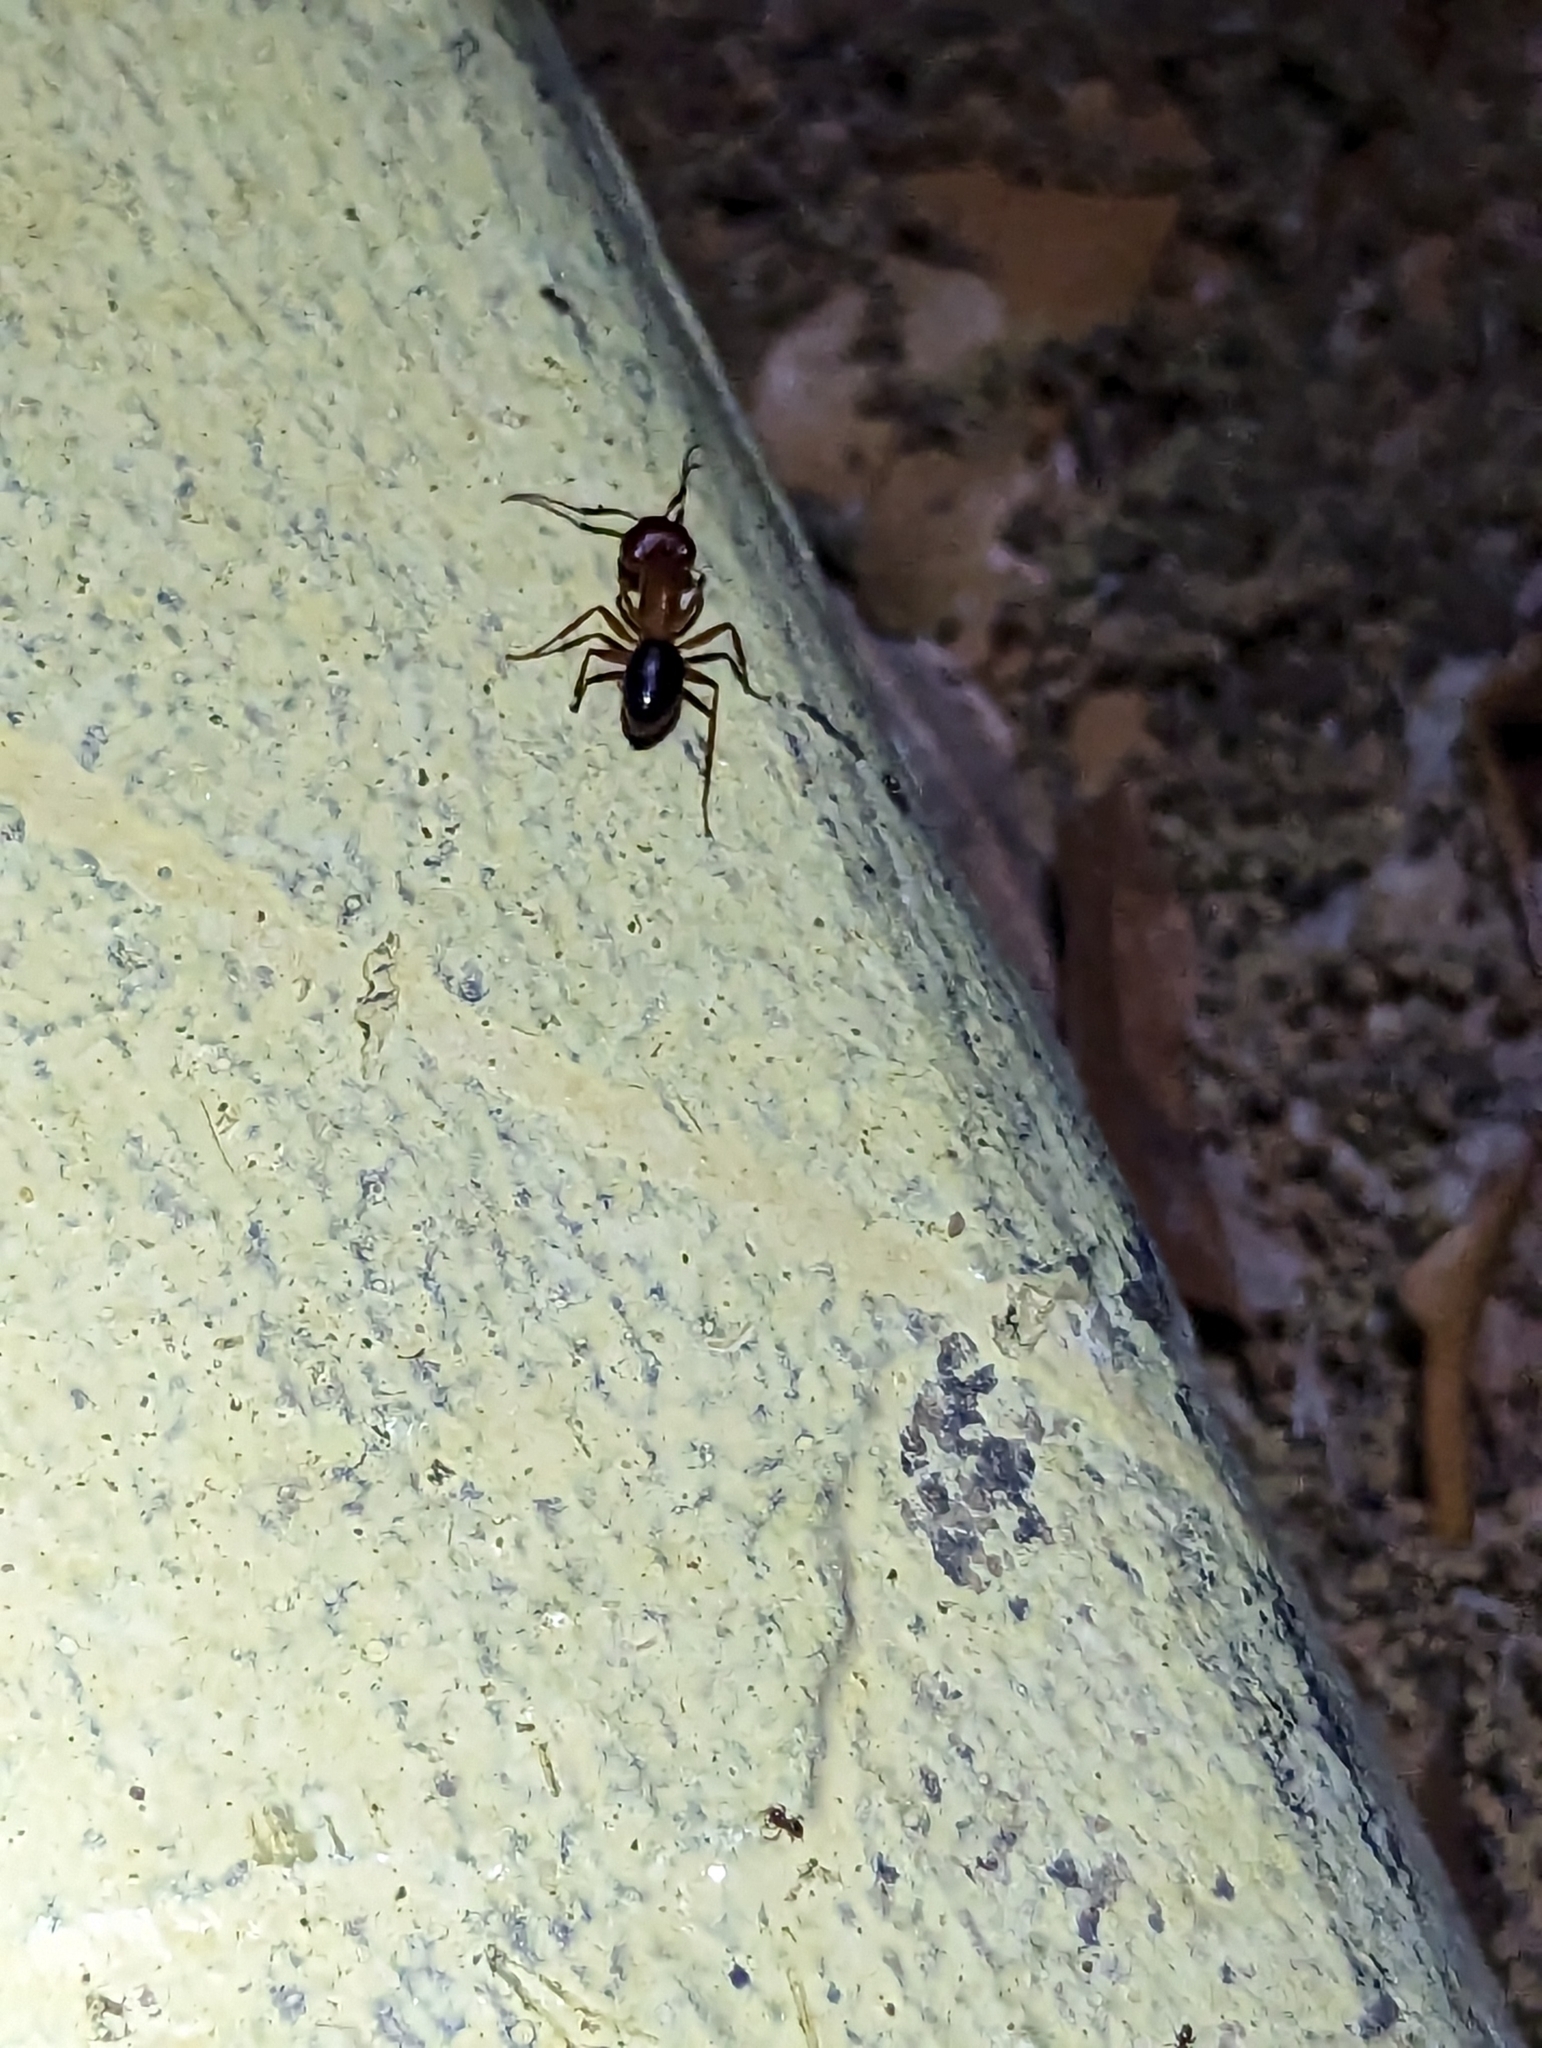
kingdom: Animalia
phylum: Arthropoda
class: Insecta
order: Hymenoptera
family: Formicidae
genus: Camponotus
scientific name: Camponotus floridanus
